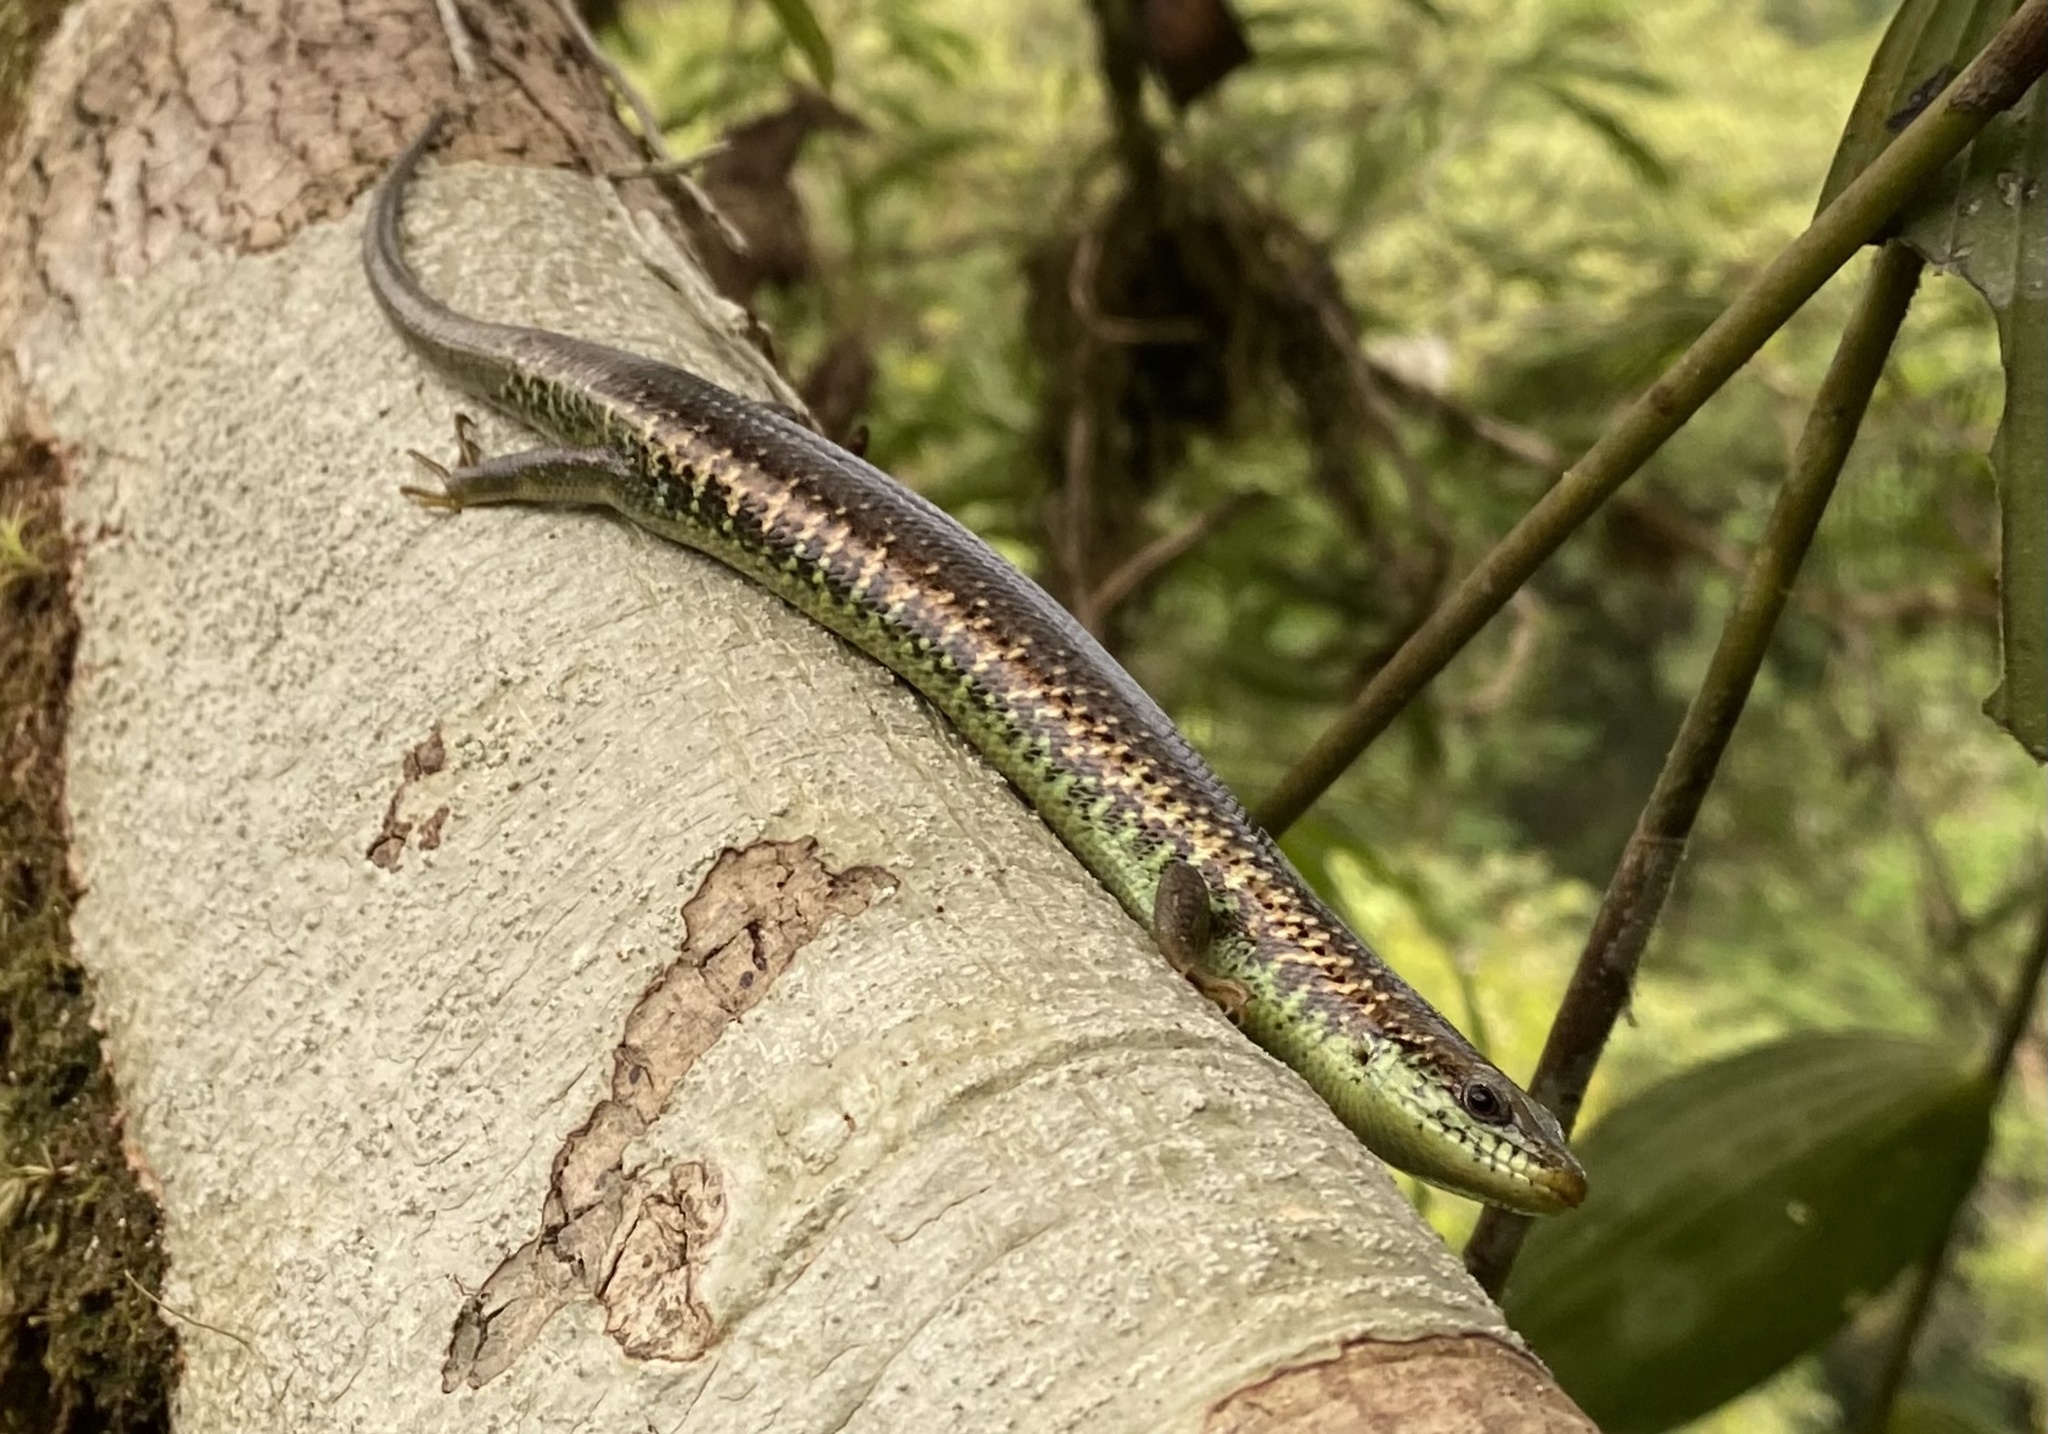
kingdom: Animalia
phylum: Chordata
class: Squamata
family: Diploglossidae
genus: Siderolamprus
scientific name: Siderolamprus
